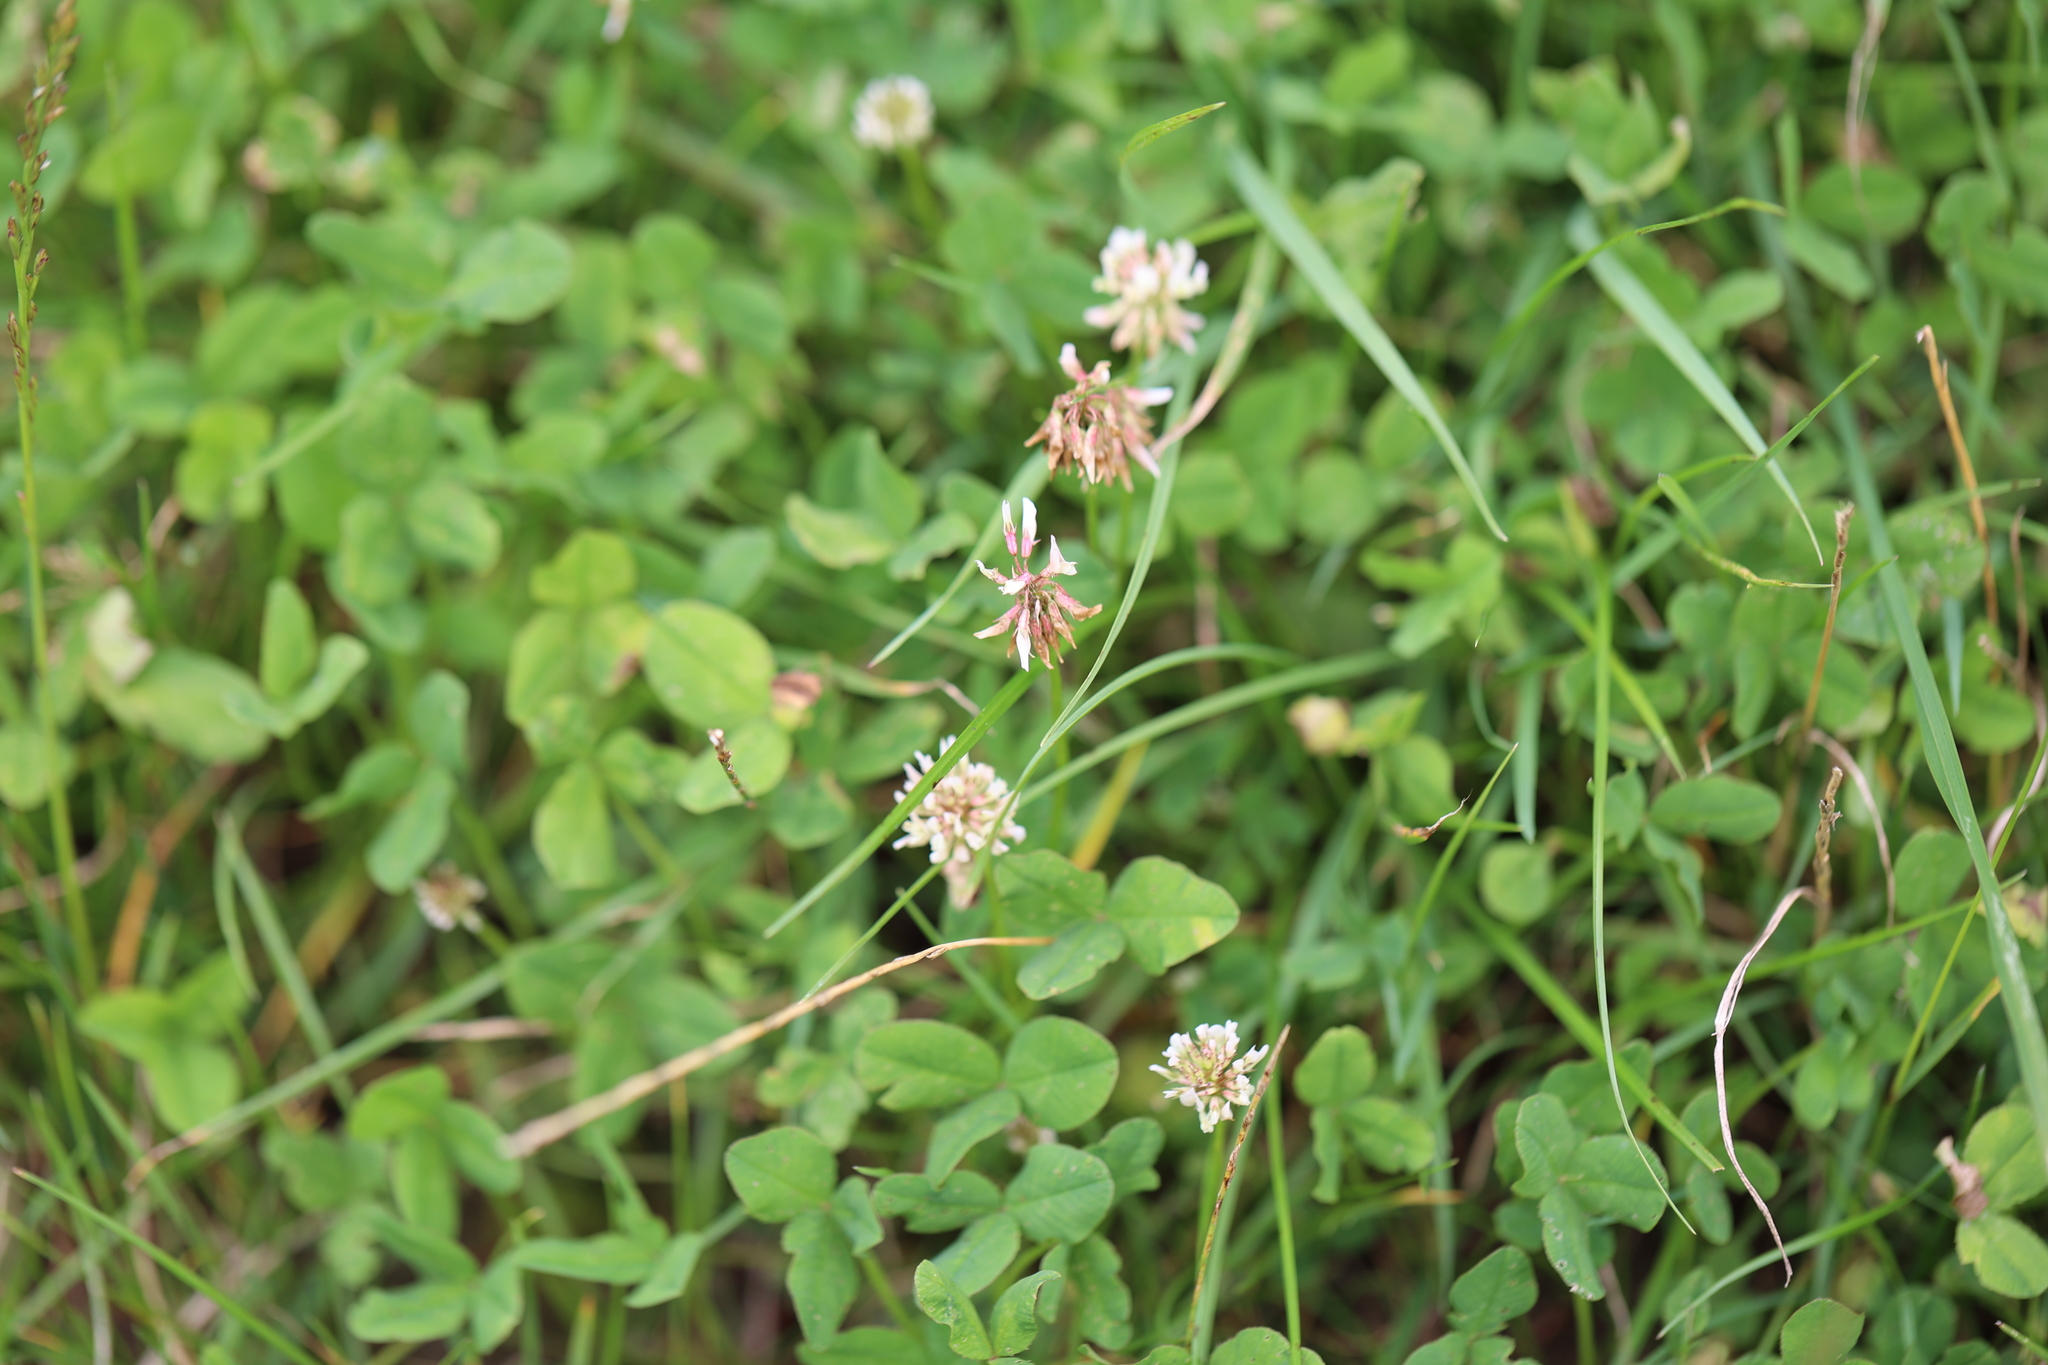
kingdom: Plantae
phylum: Tracheophyta
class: Magnoliopsida
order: Fabales
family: Fabaceae
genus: Trifolium
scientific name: Trifolium repens
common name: White clover
